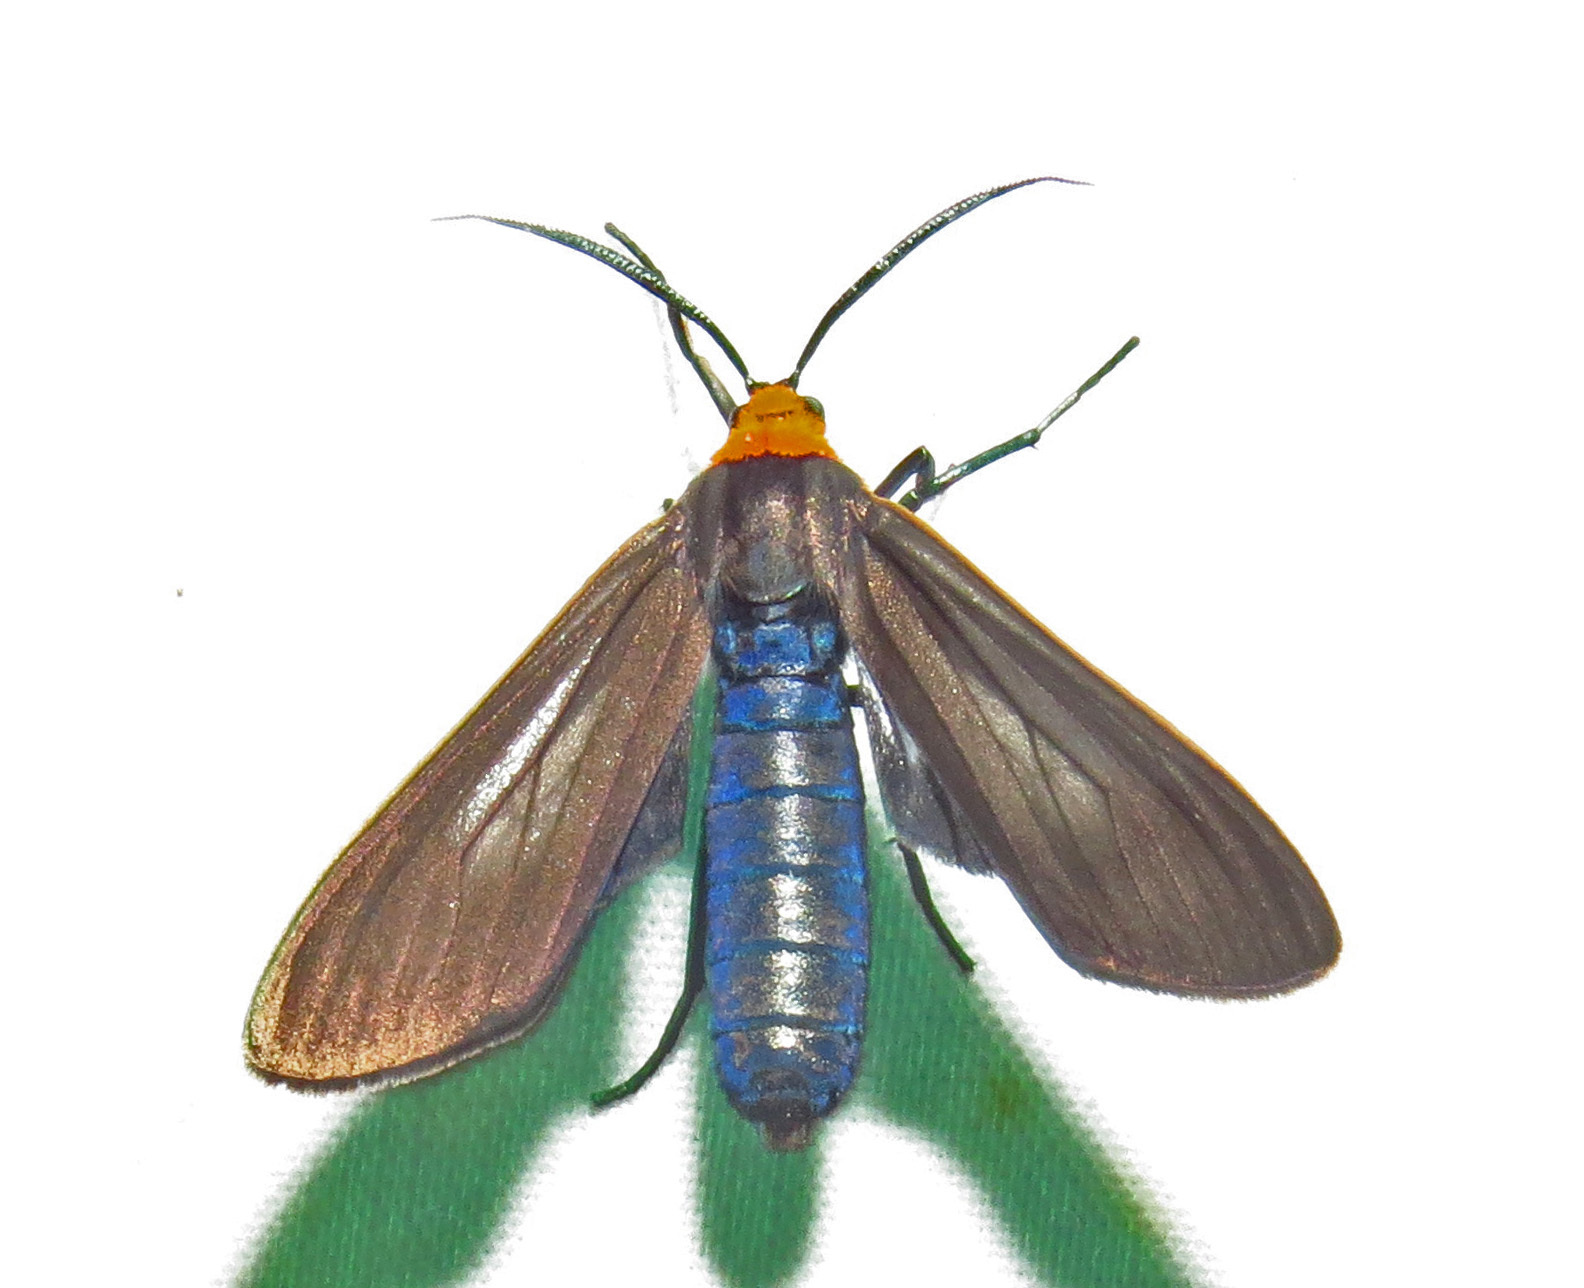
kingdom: Animalia
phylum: Arthropoda
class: Insecta
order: Lepidoptera
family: Erebidae
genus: Cisseps
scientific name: Cisseps fulvicollis
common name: Yellow-collared scape moth
